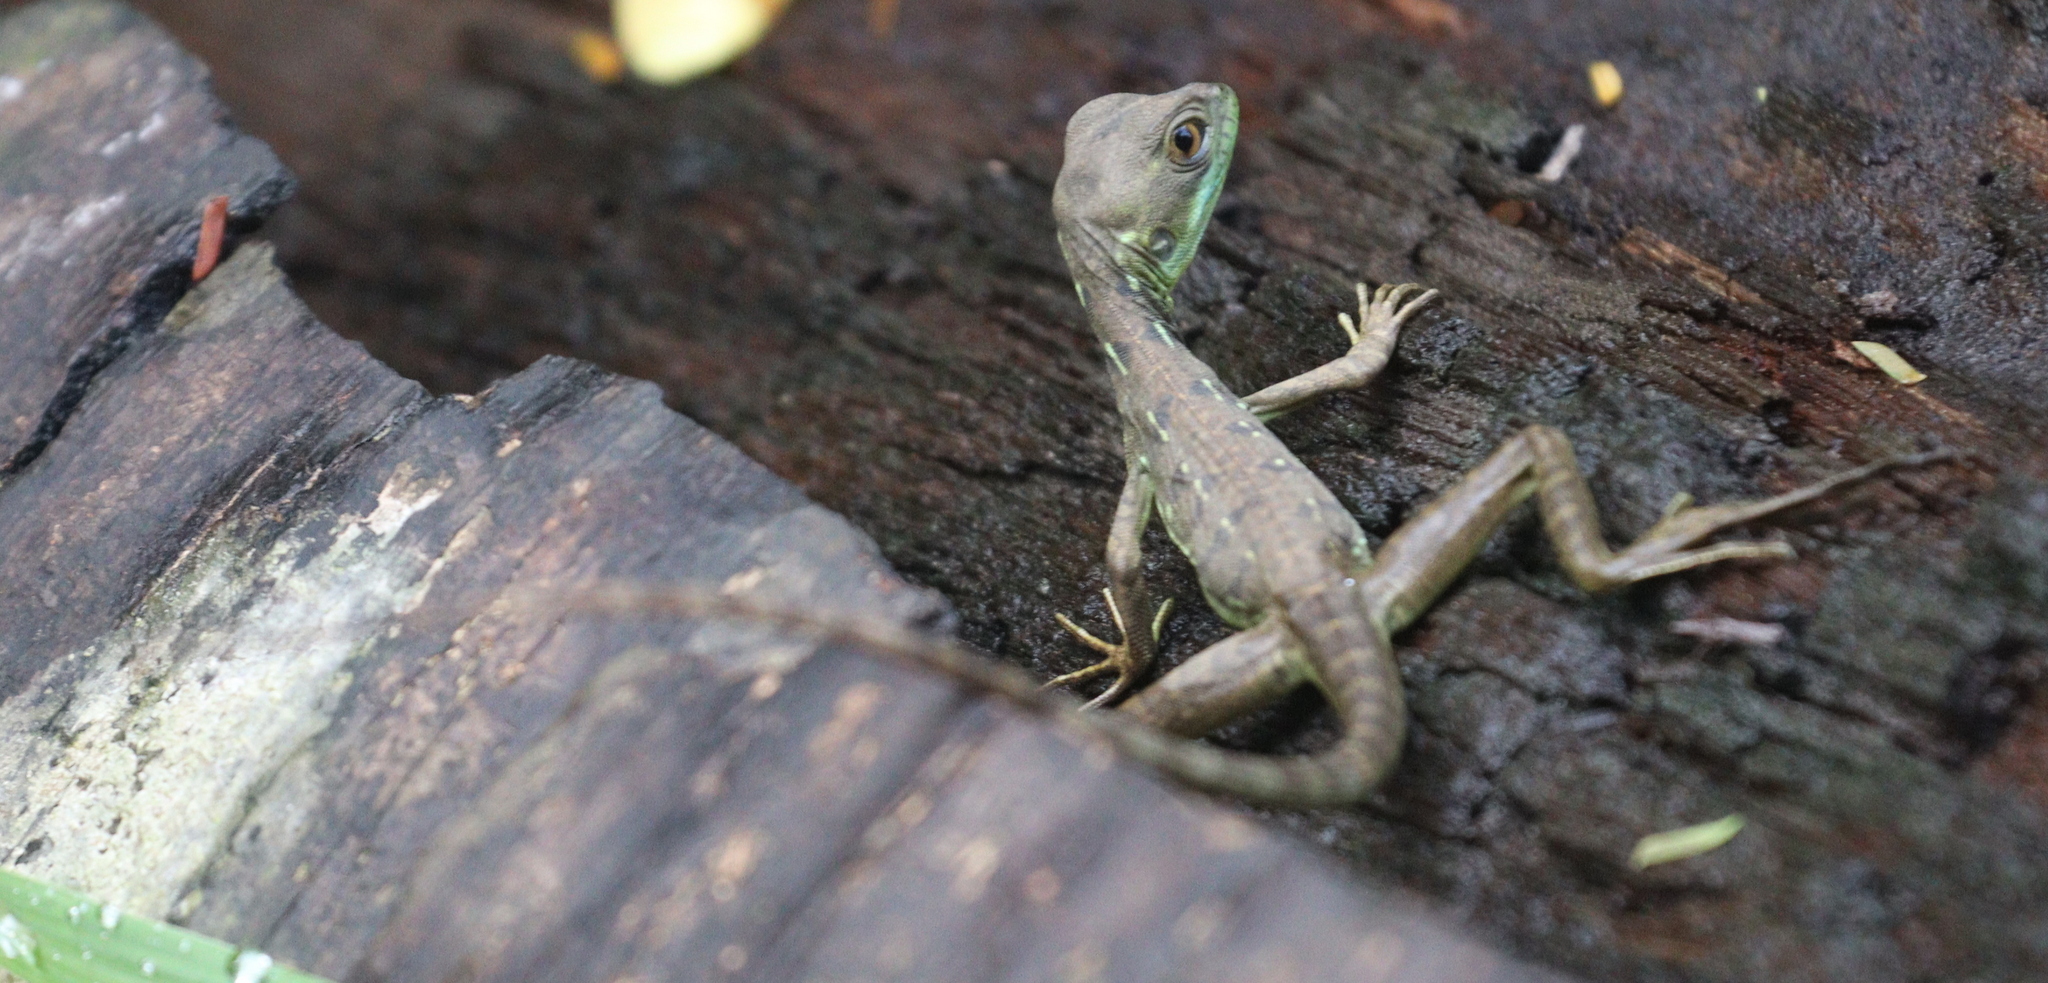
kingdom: Animalia
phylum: Chordata
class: Squamata
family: Corytophanidae
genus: Basiliscus
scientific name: Basiliscus plumifrons
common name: Green basilisk
